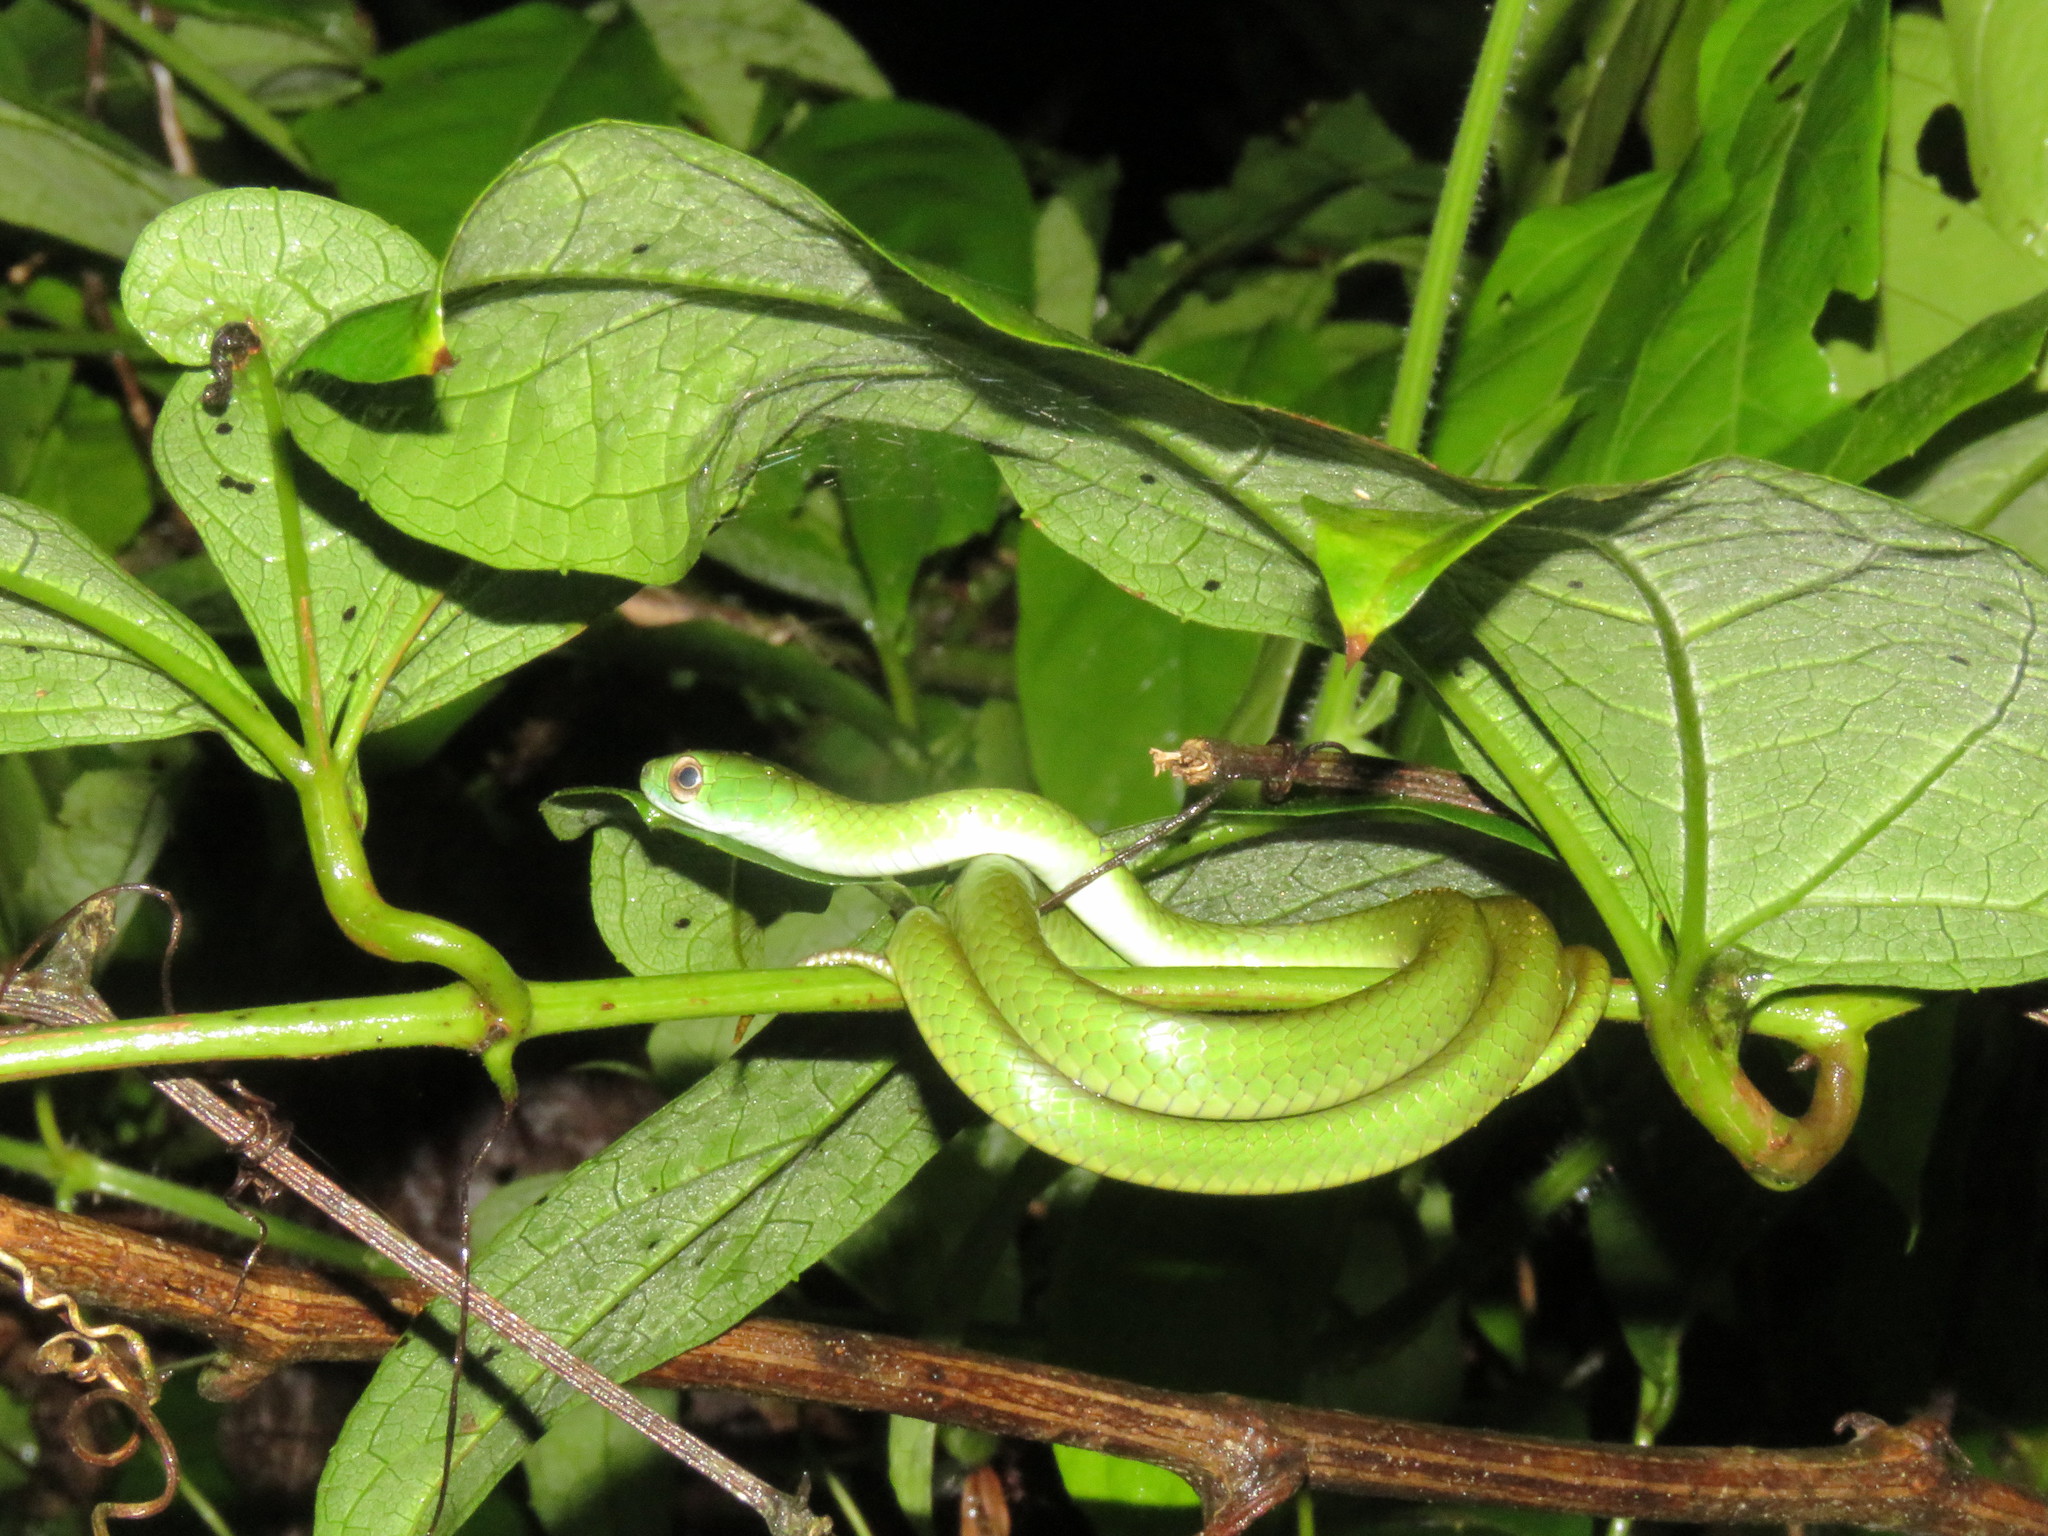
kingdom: Animalia
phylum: Chordata
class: Squamata
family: Colubridae
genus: Chironius
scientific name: Chironius scurrulus
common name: Wagler's sipo
